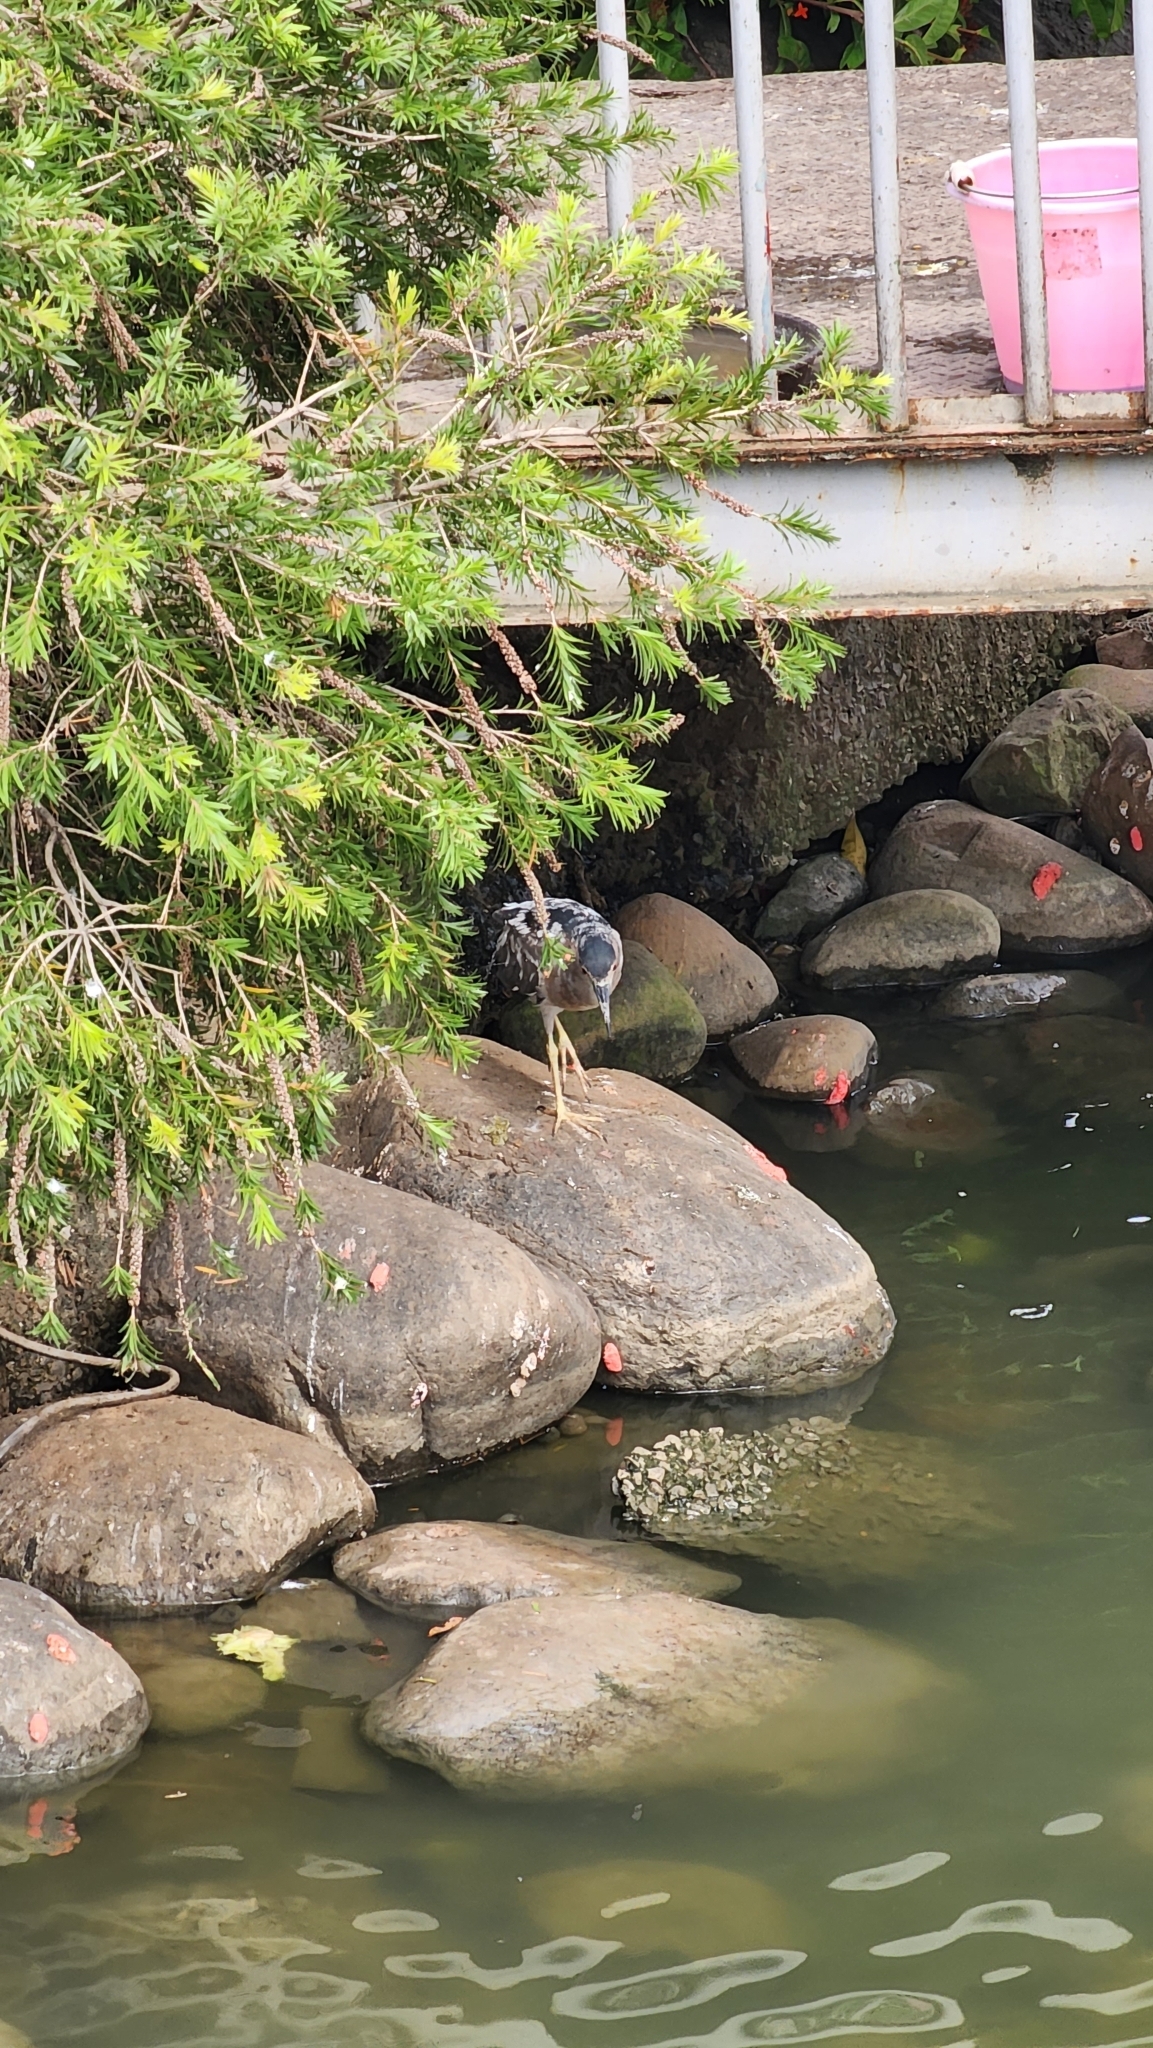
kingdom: Animalia
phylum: Chordata
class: Aves
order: Pelecaniformes
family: Ardeidae
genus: Nycticorax
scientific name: Nycticorax nycticorax
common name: Black-crowned night heron
